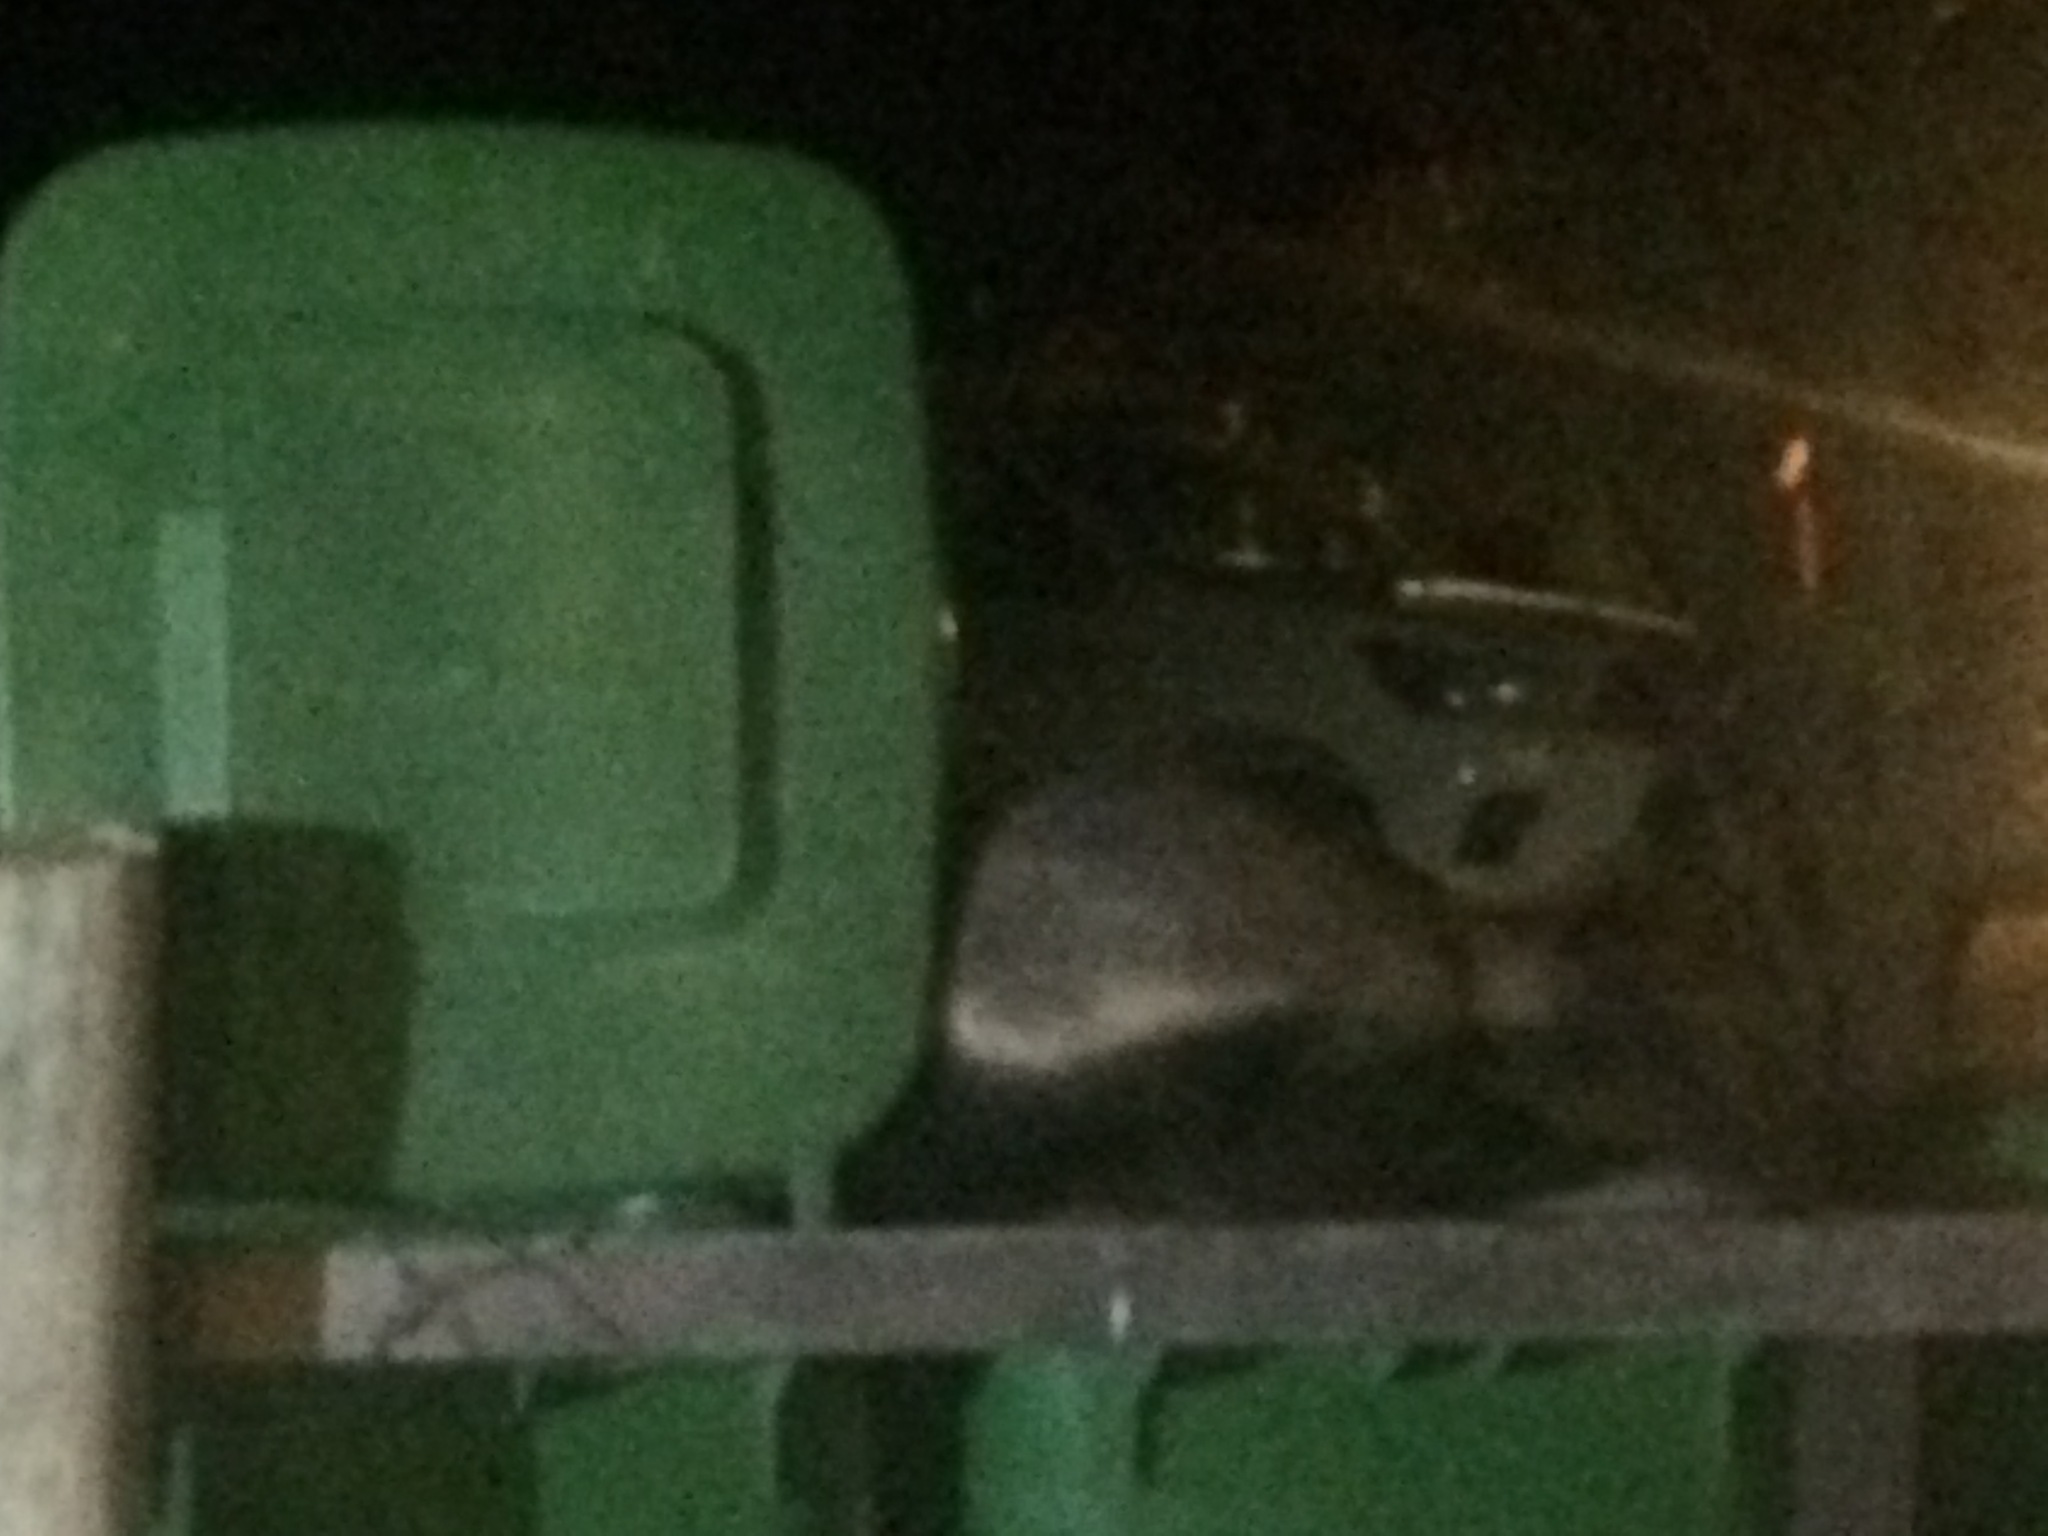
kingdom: Animalia
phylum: Chordata
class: Mammalia
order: Carnivora
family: Mustelidae
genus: Mellivora
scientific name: Mellivora capensis
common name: Honey badger
